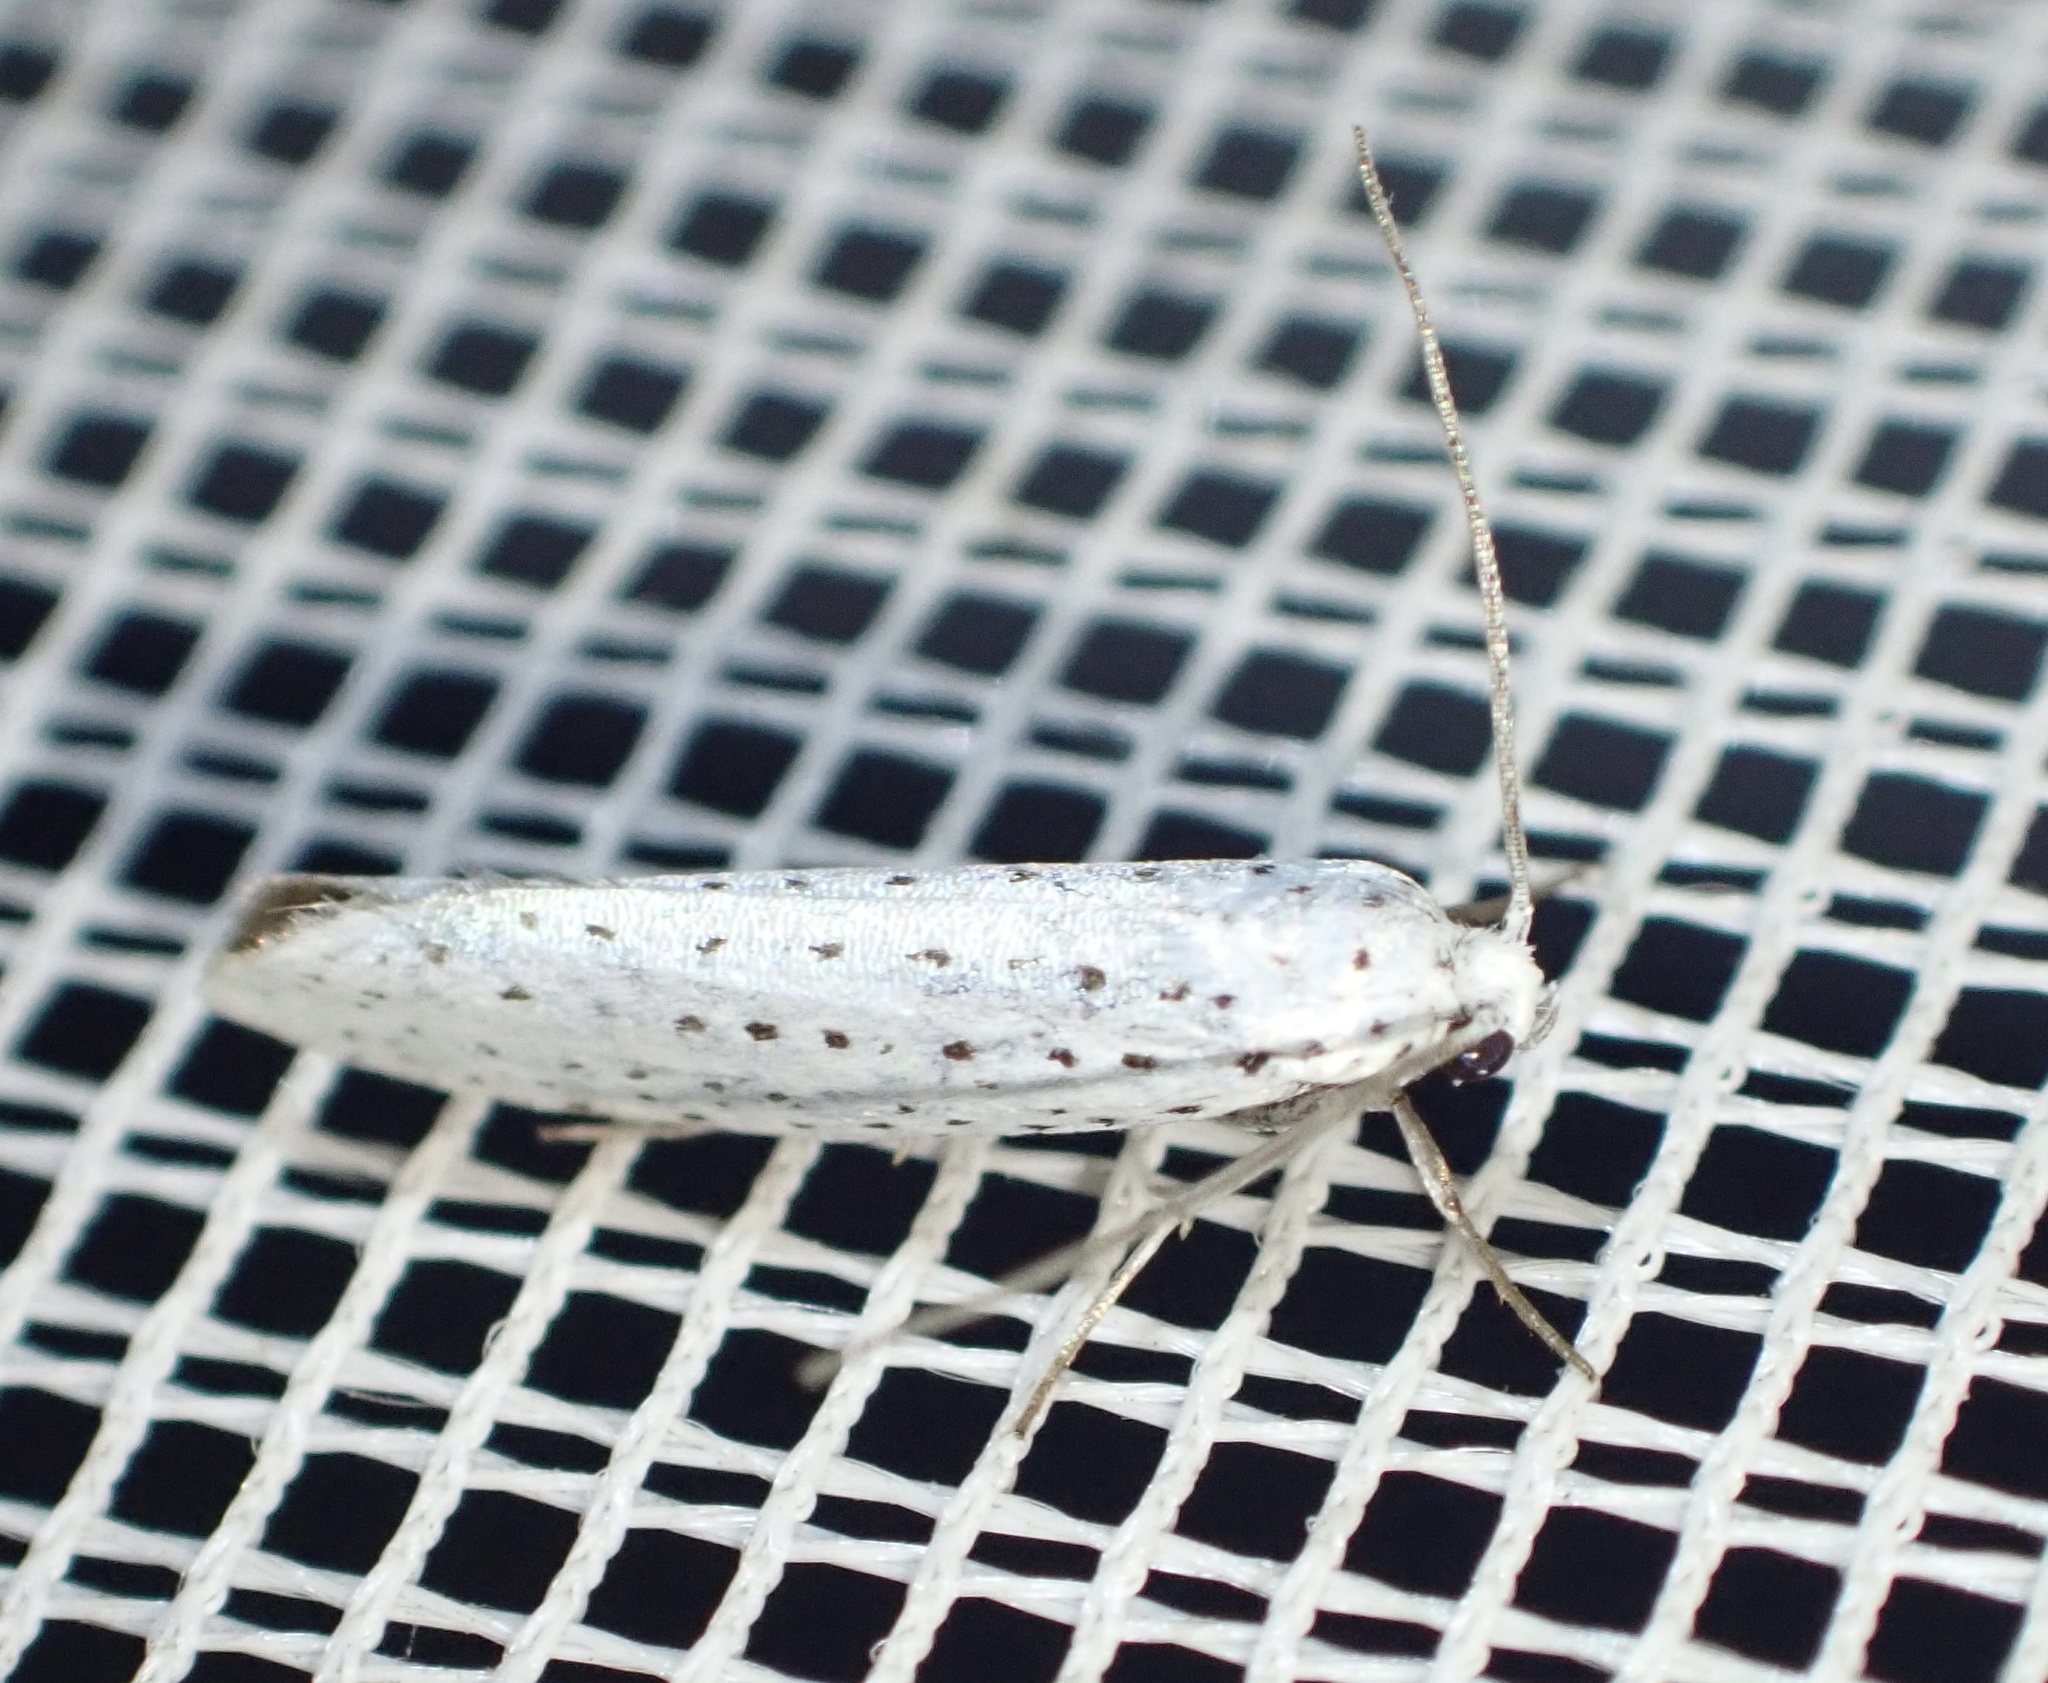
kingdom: Animalia
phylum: Arthropoda
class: Insecta
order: Lepidoptera
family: Yponomeutidae
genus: Yponomeuta
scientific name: Yponomeuta evonymella
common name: Bird-cherry ermine
